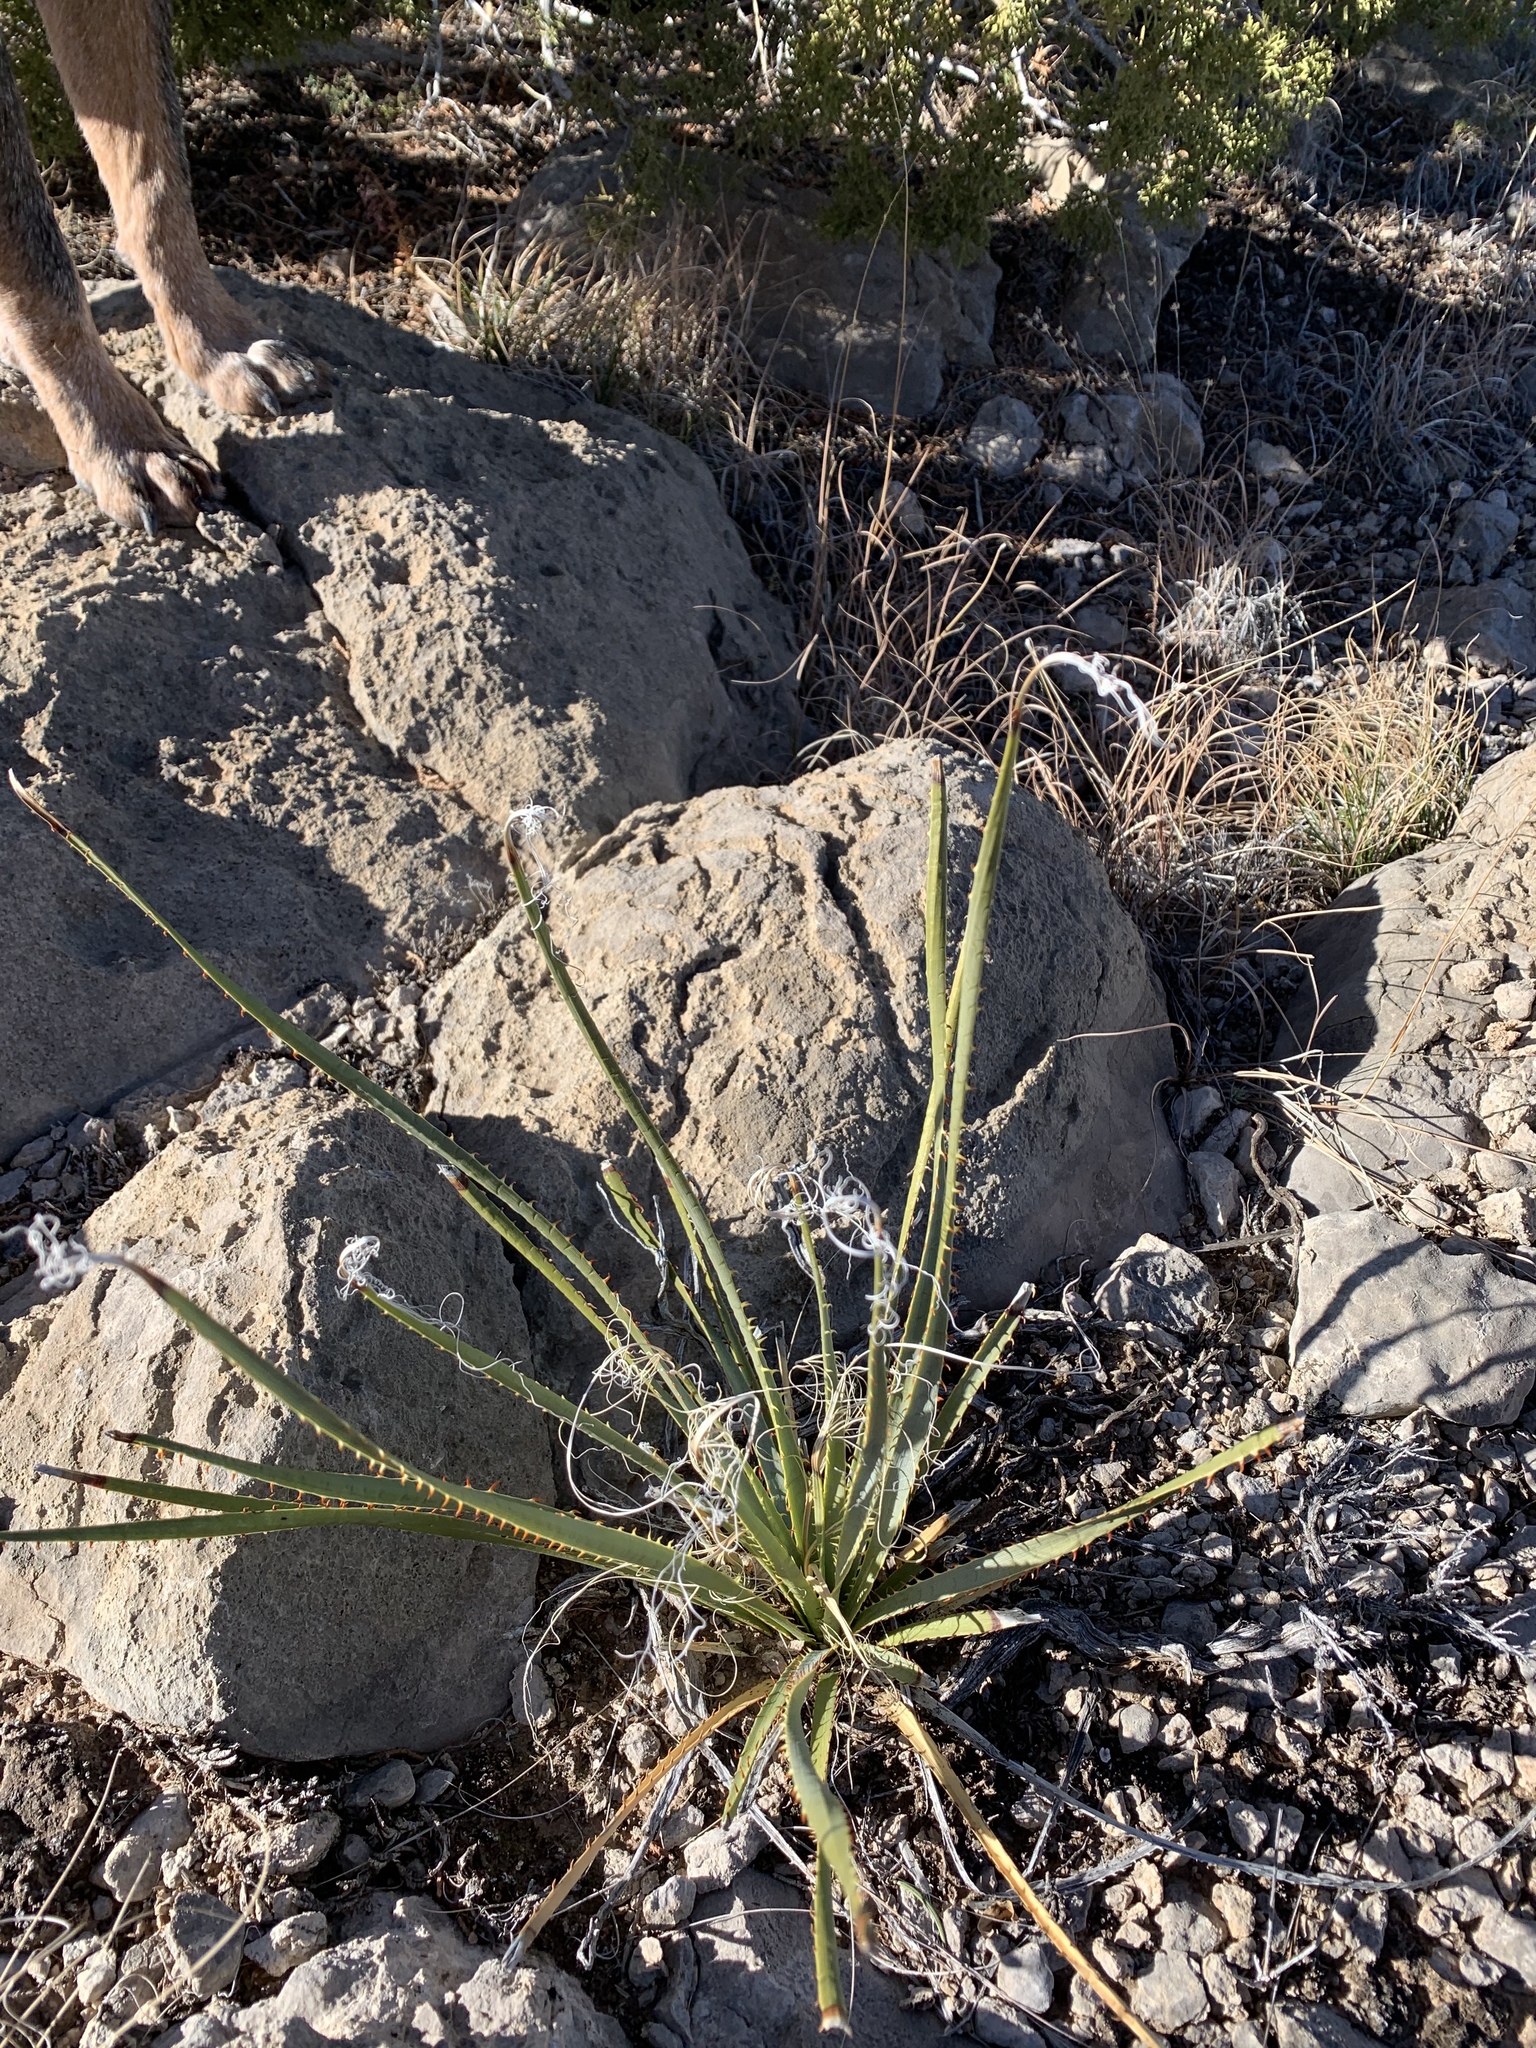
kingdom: Plantae
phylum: Tracheophyta
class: Liliopsida
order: Asparagales
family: Asparagaceae
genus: Dasylirion
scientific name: Dasylirion wheeleri
